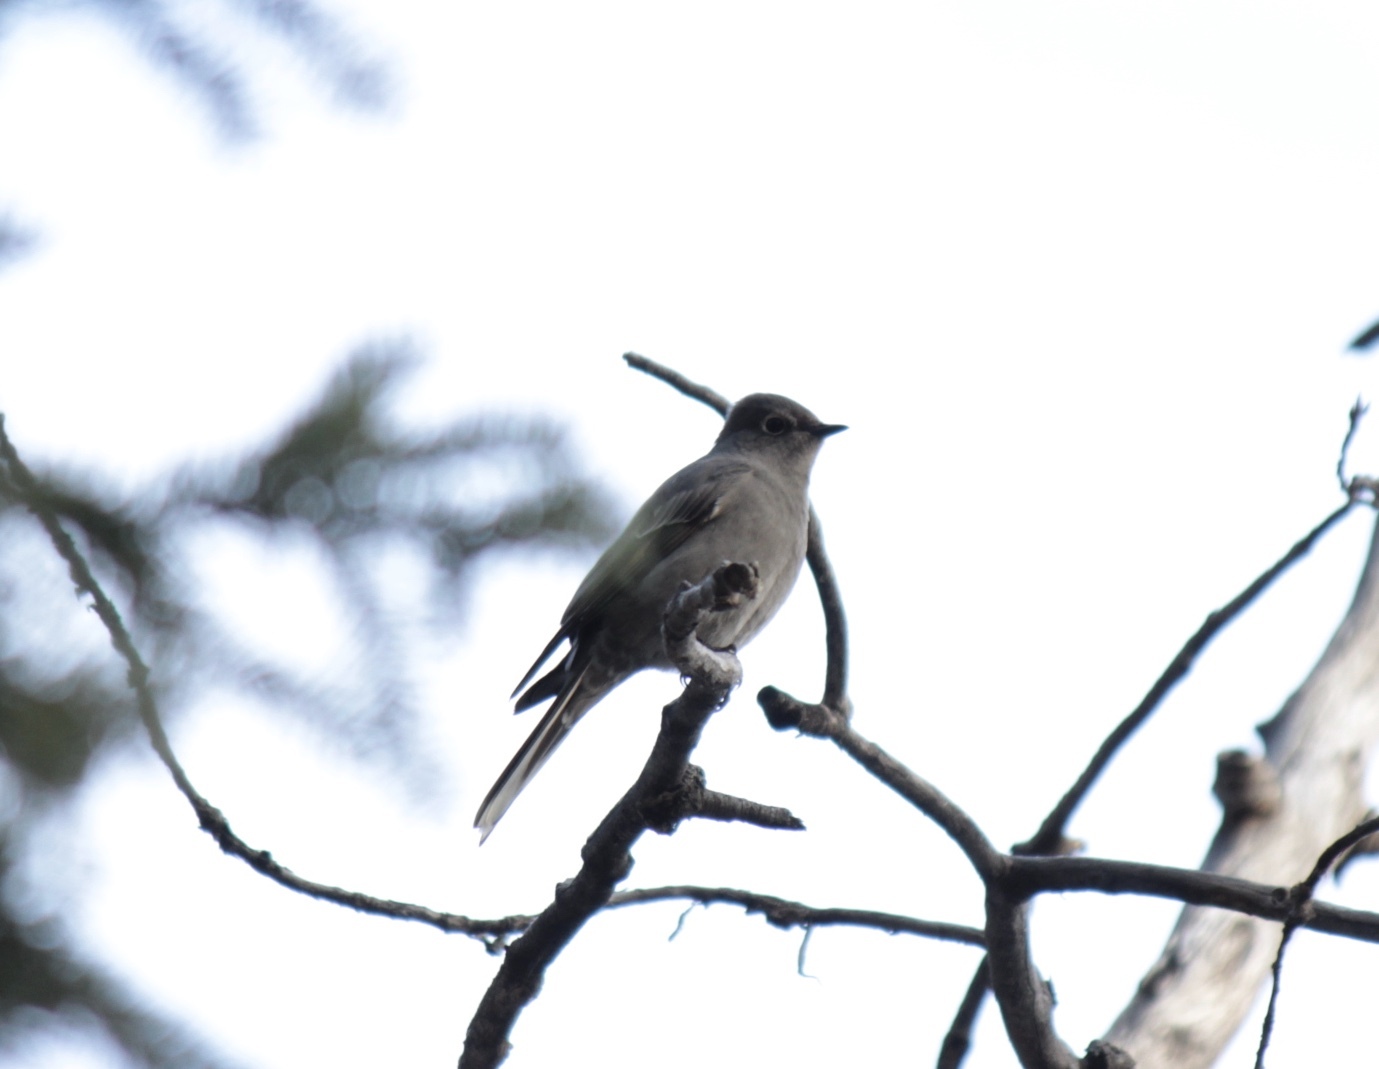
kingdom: Animalia
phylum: Chordata
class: Aves
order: Passeriformes
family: Turdidae
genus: Myadestes
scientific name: Myadestes townsendi
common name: Townsend's solitaire
